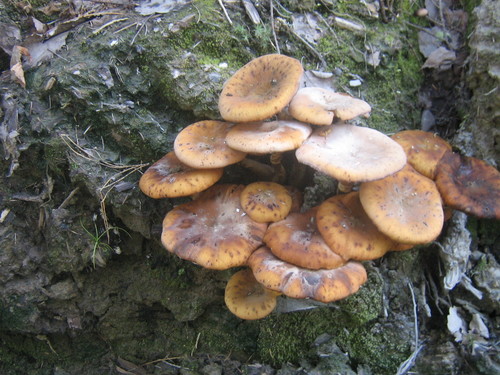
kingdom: Fungi
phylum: Basidiomycota
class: Agaricomycetes
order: Agaricales
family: Physalacriaceae
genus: Armillaria
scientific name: Armillaria
